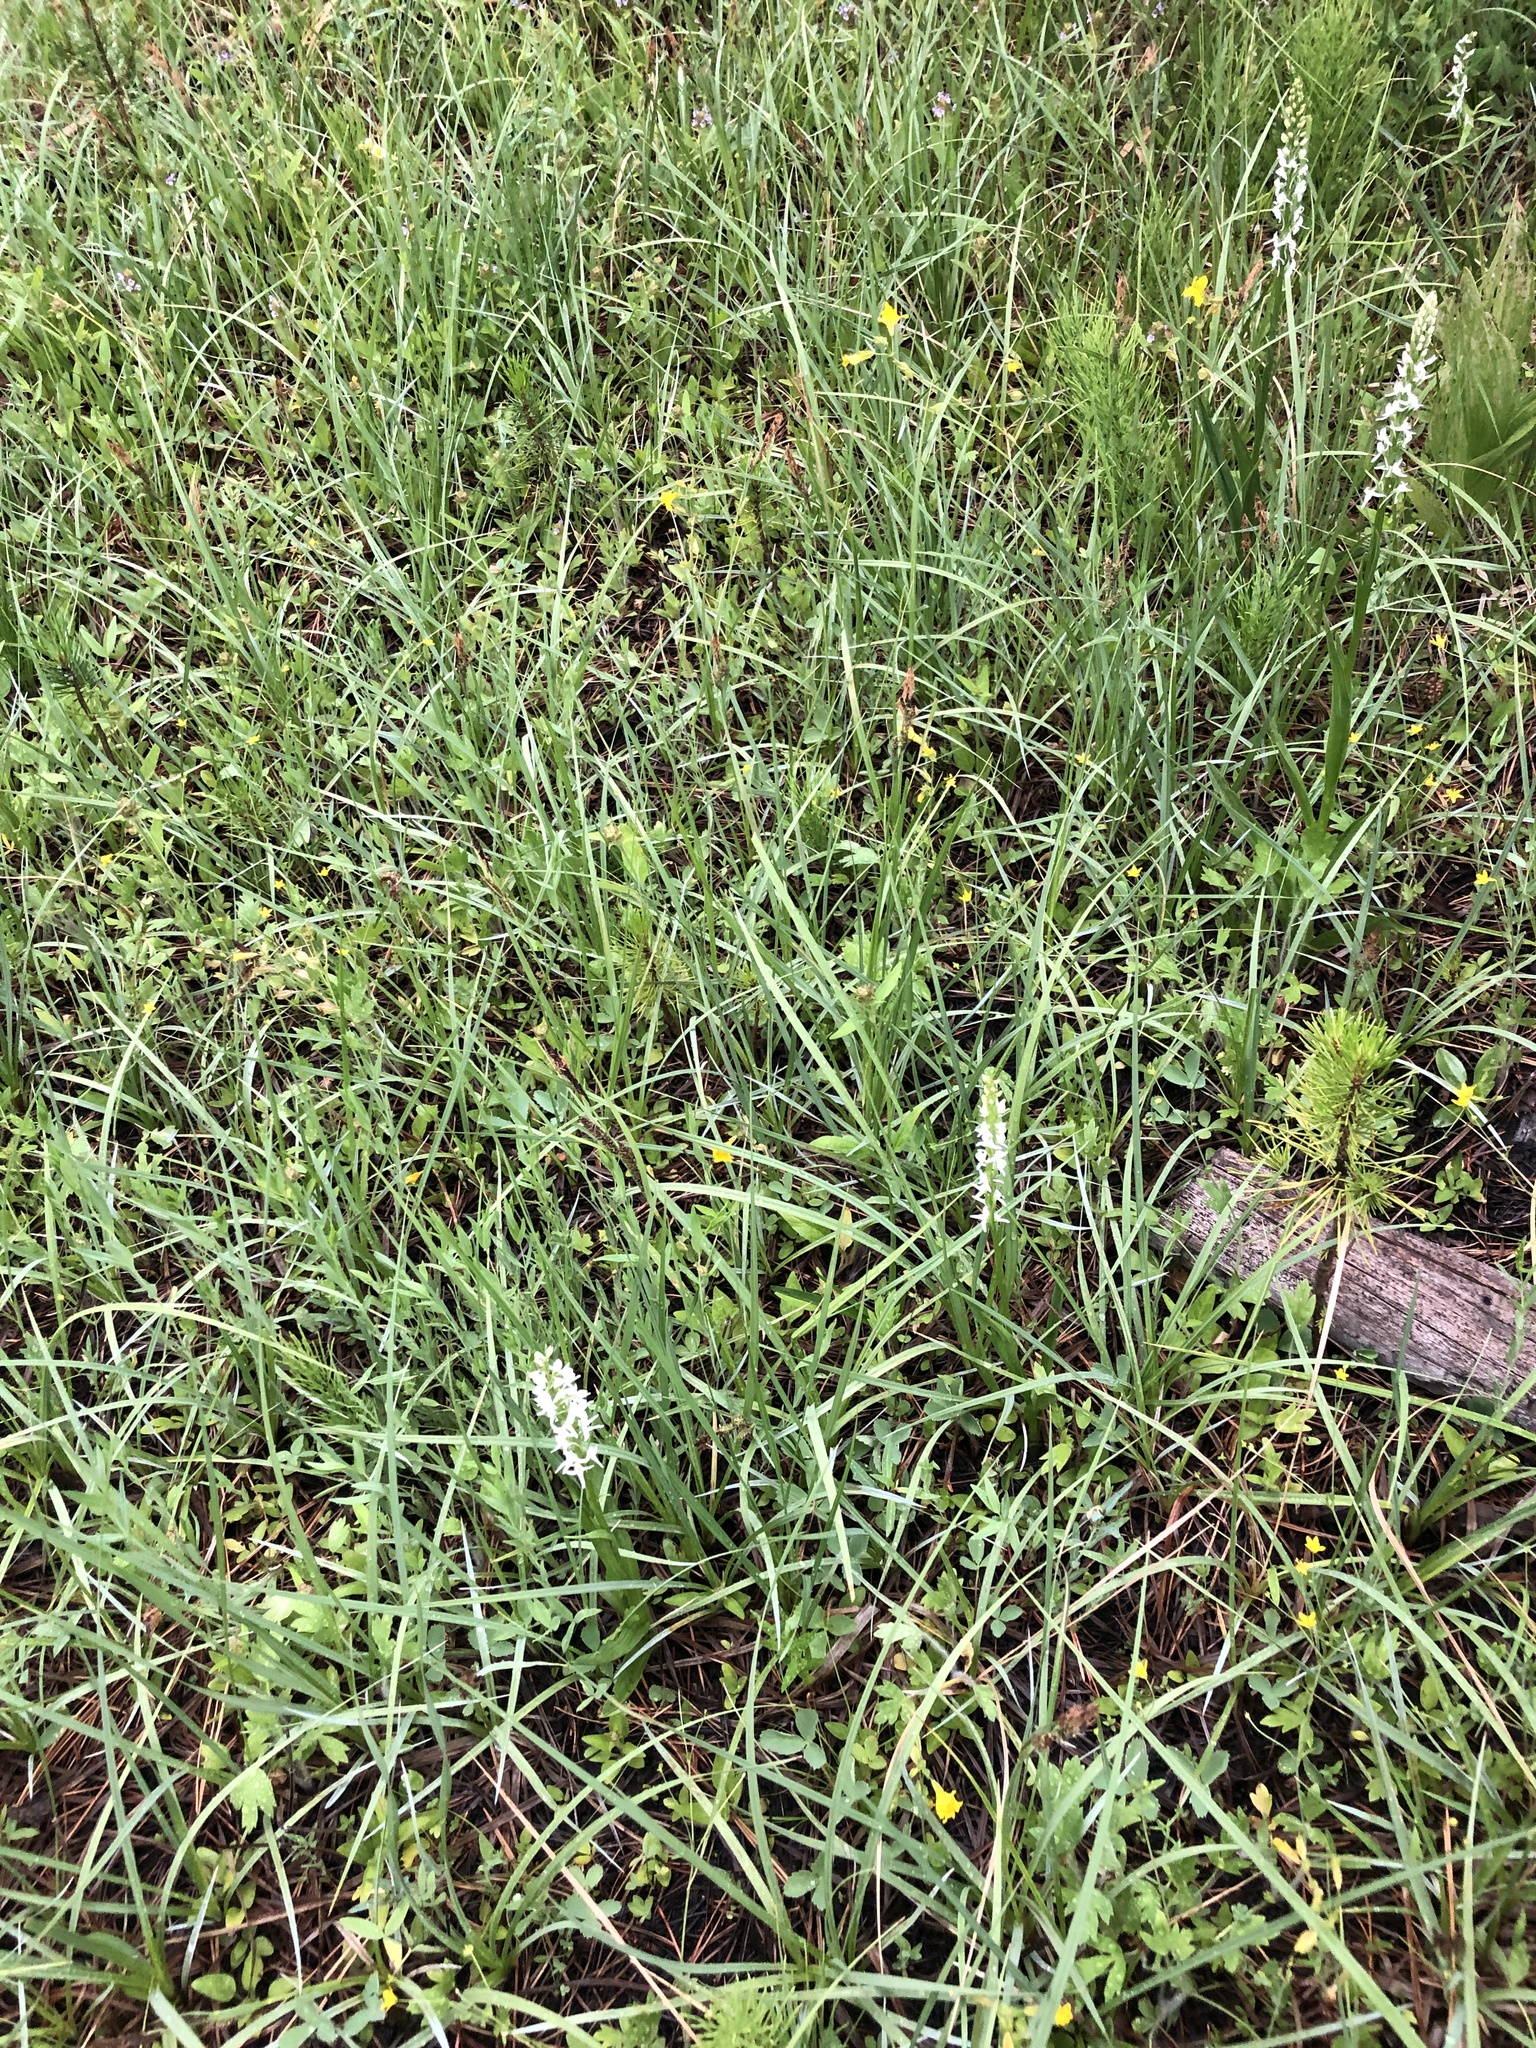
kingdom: Plantae
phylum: Tracheophyta
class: Liliopsida
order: Asparagales
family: Orchidaceae
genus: Platanthera
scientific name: Platanthera dilatata
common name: Bog candles
